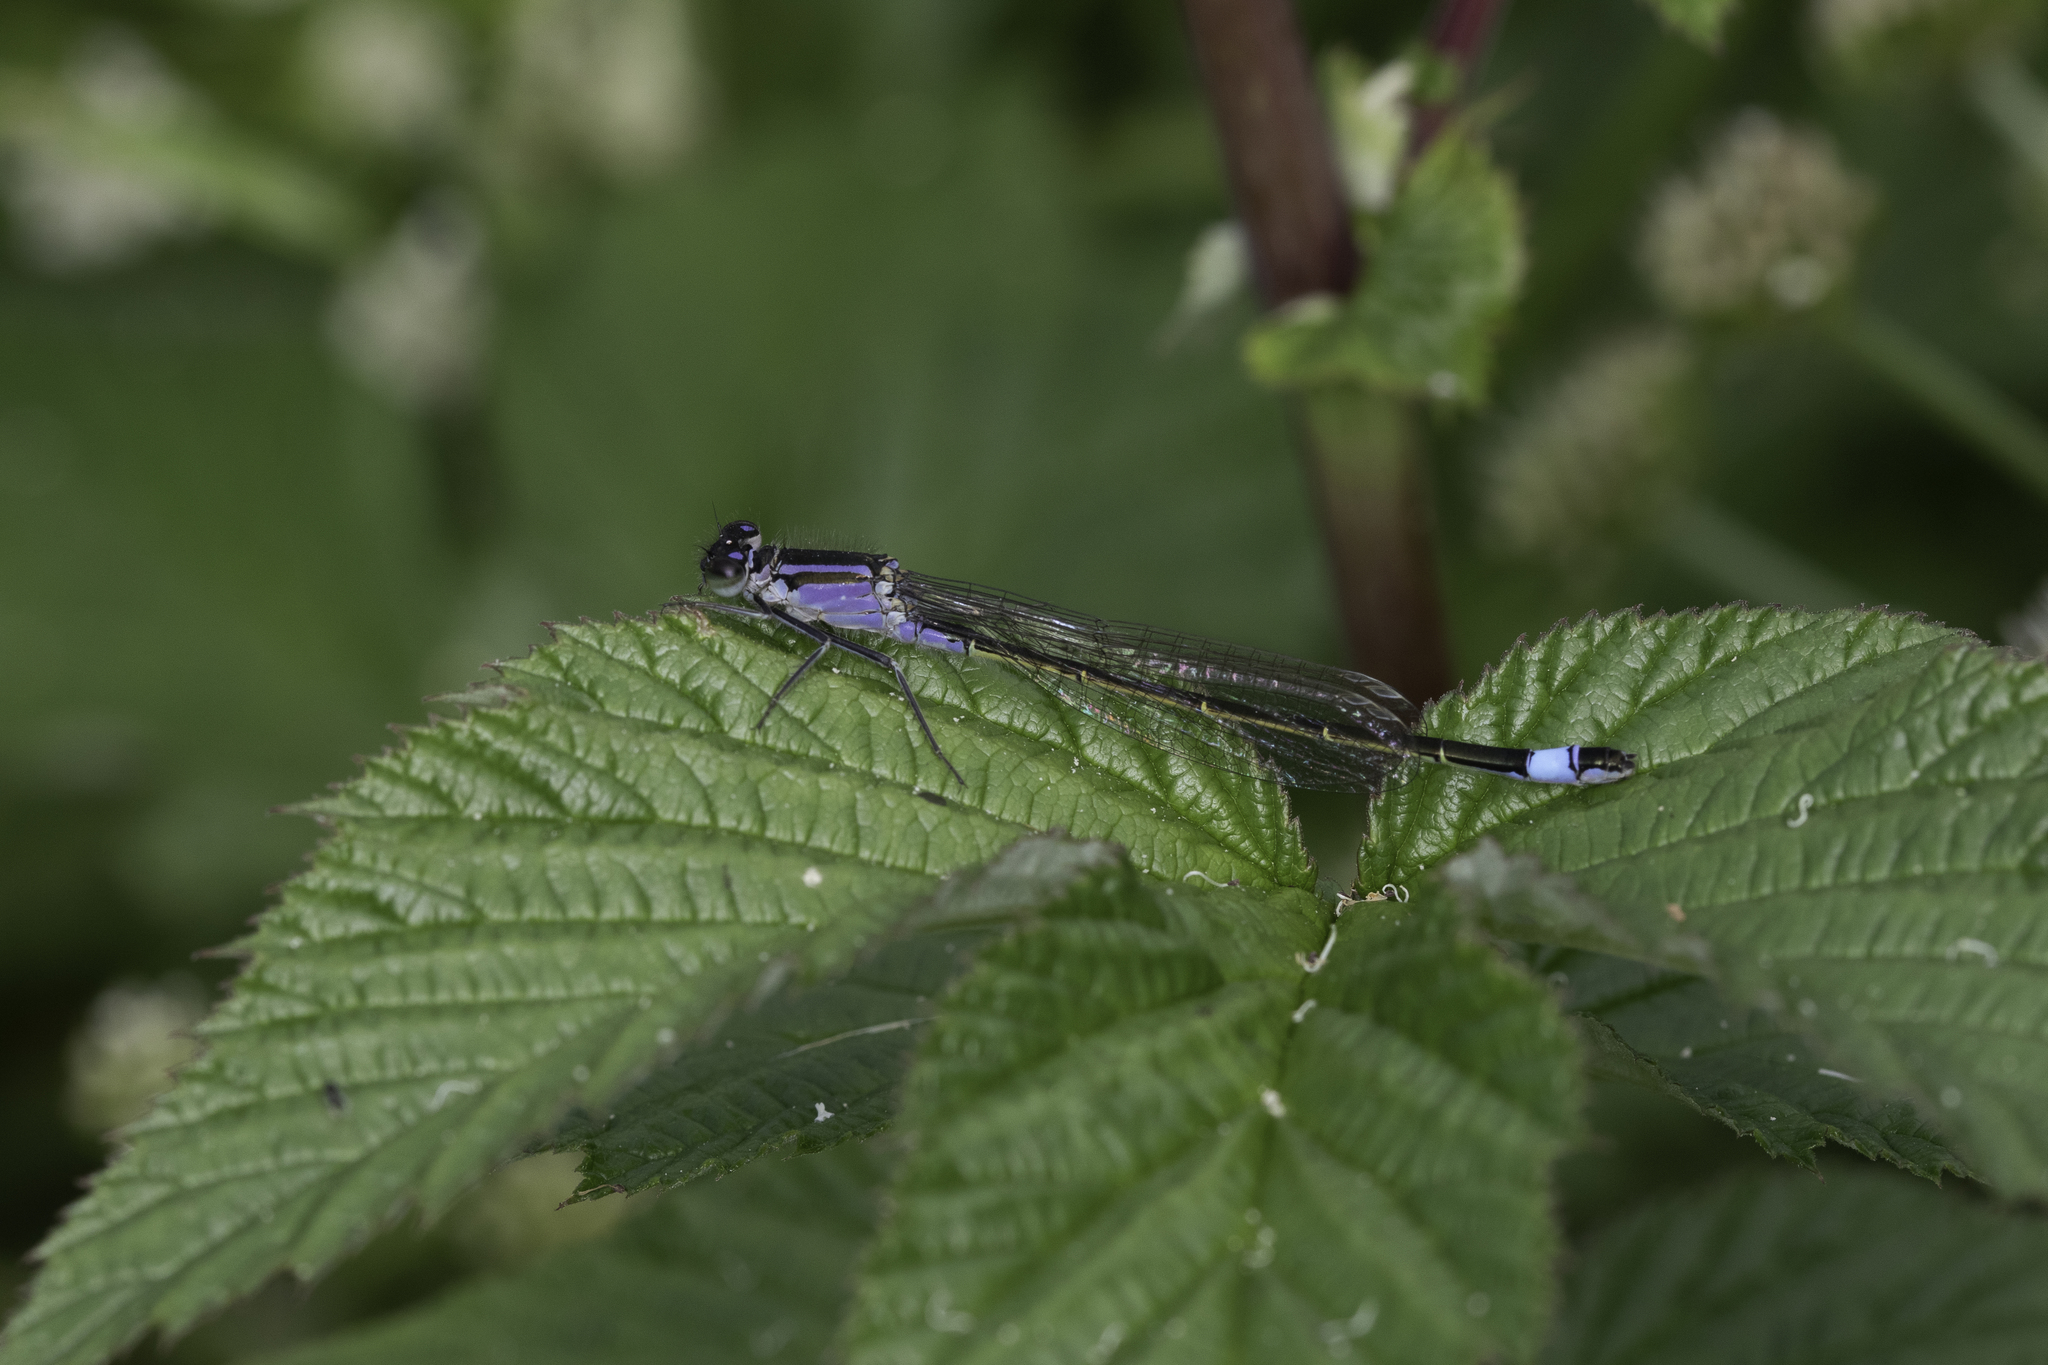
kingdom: Animalia
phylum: Arthropoda
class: Insecta
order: Odonata
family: Coenagrionidae
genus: Ischnura
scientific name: Ischnura elegans
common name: Blue-tailed damselfly
